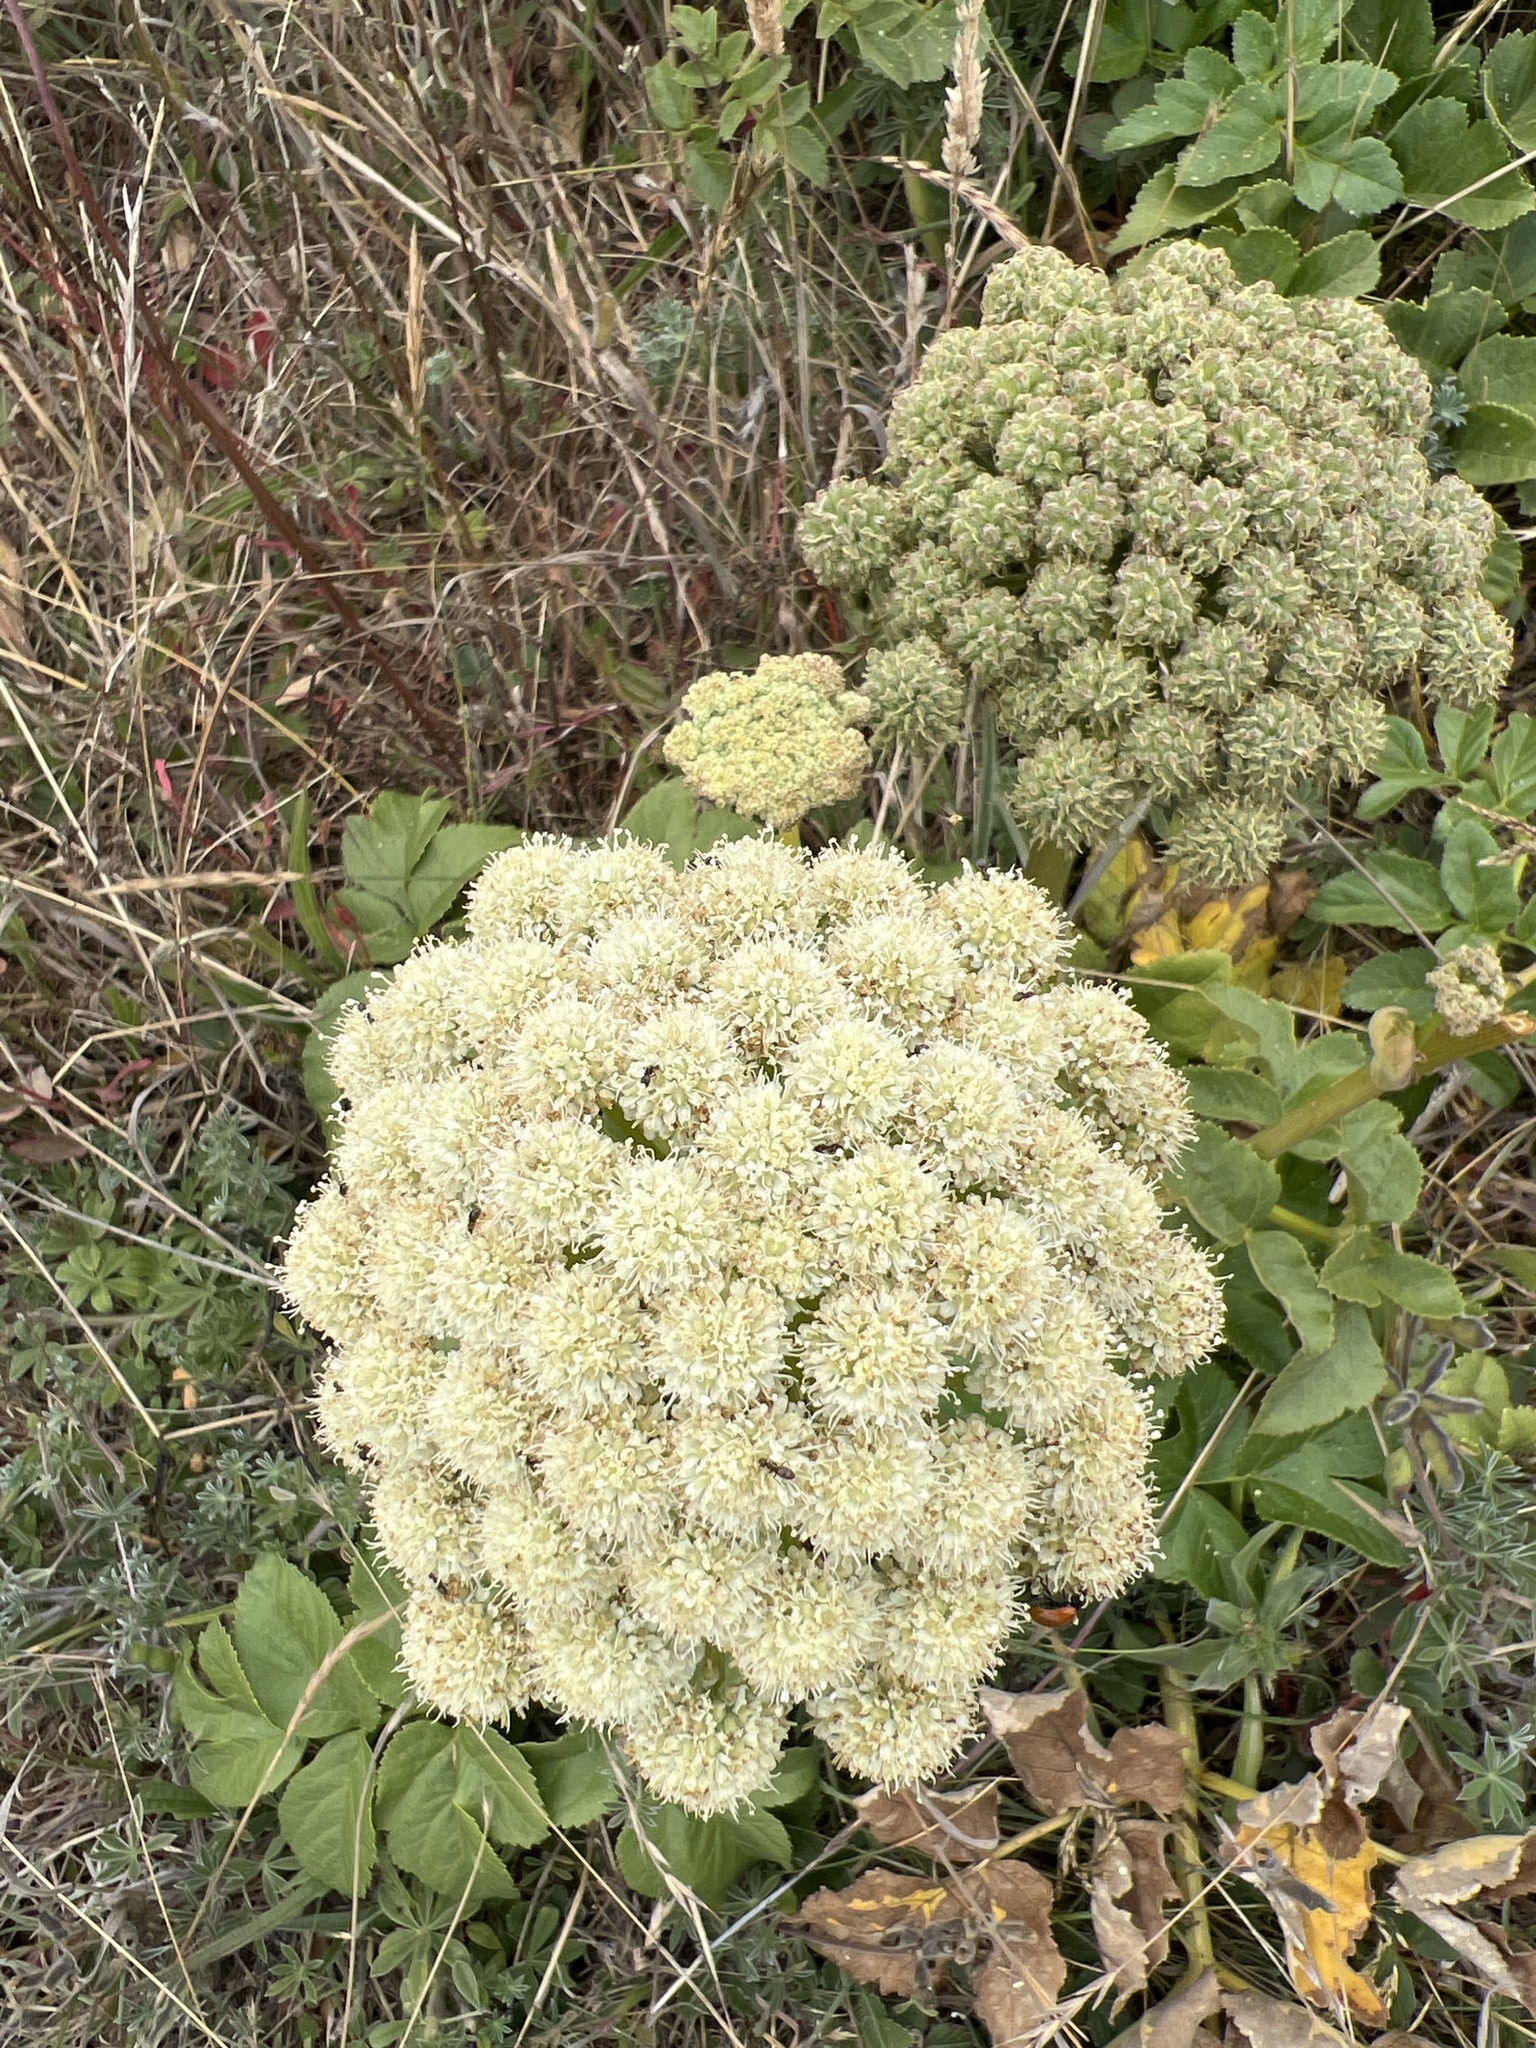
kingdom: Plantae
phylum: Tracheophyta
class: Magnoliopsida
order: Apiales
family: Apiaceae
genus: Angelica
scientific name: Angelica hendersonii
